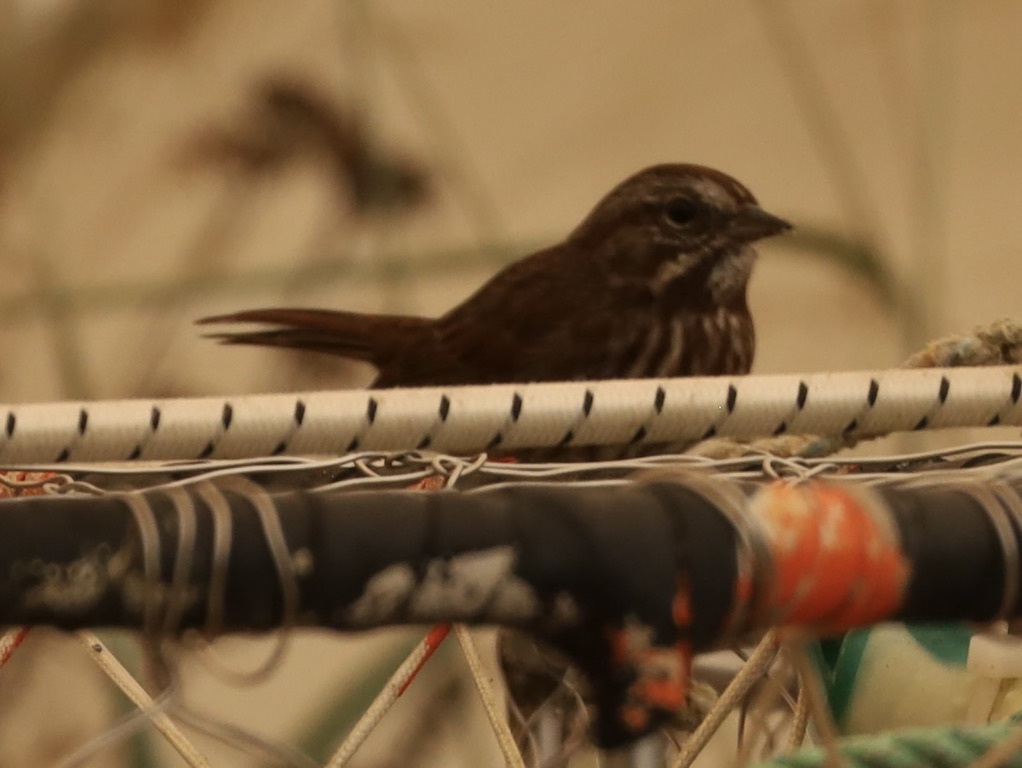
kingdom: Animalia
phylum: Chordata
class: Aves
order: Passeriformes
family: Passerellidae
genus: Melospiza
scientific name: Melospiza melodia
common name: Song sparrow
